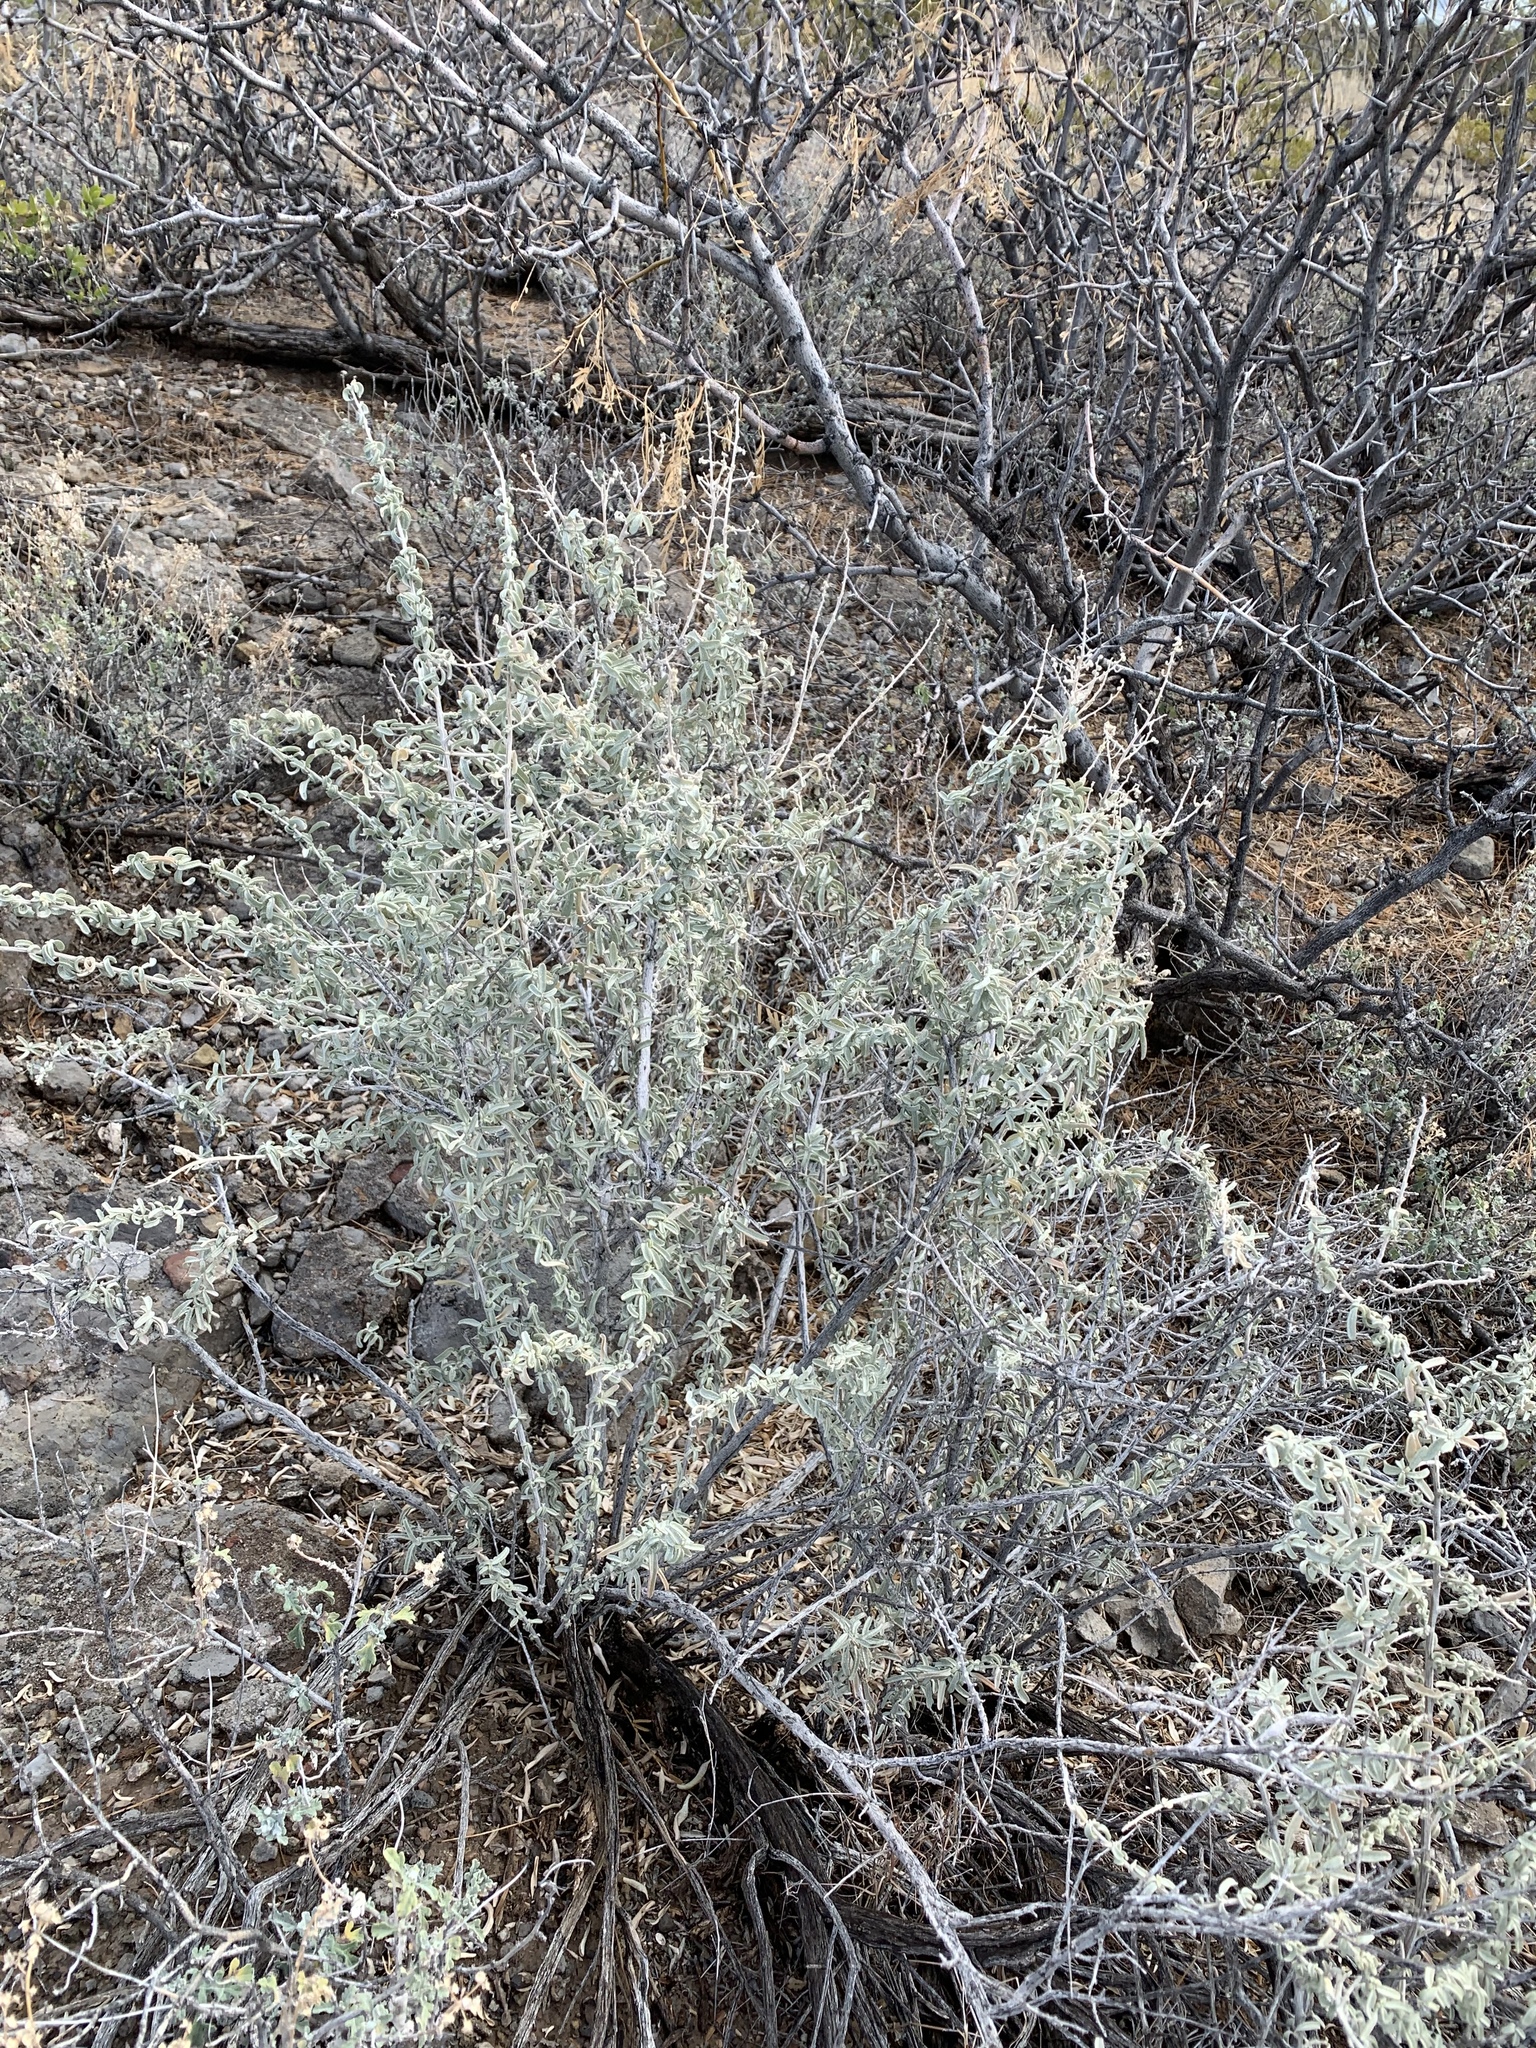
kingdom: Plantae
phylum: Tracheophyta
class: Magnoliopsida
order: Caryophyllales
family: Amaranthaceae
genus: Atriplex
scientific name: Atriplex canescens
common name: Four-wing saltbush
